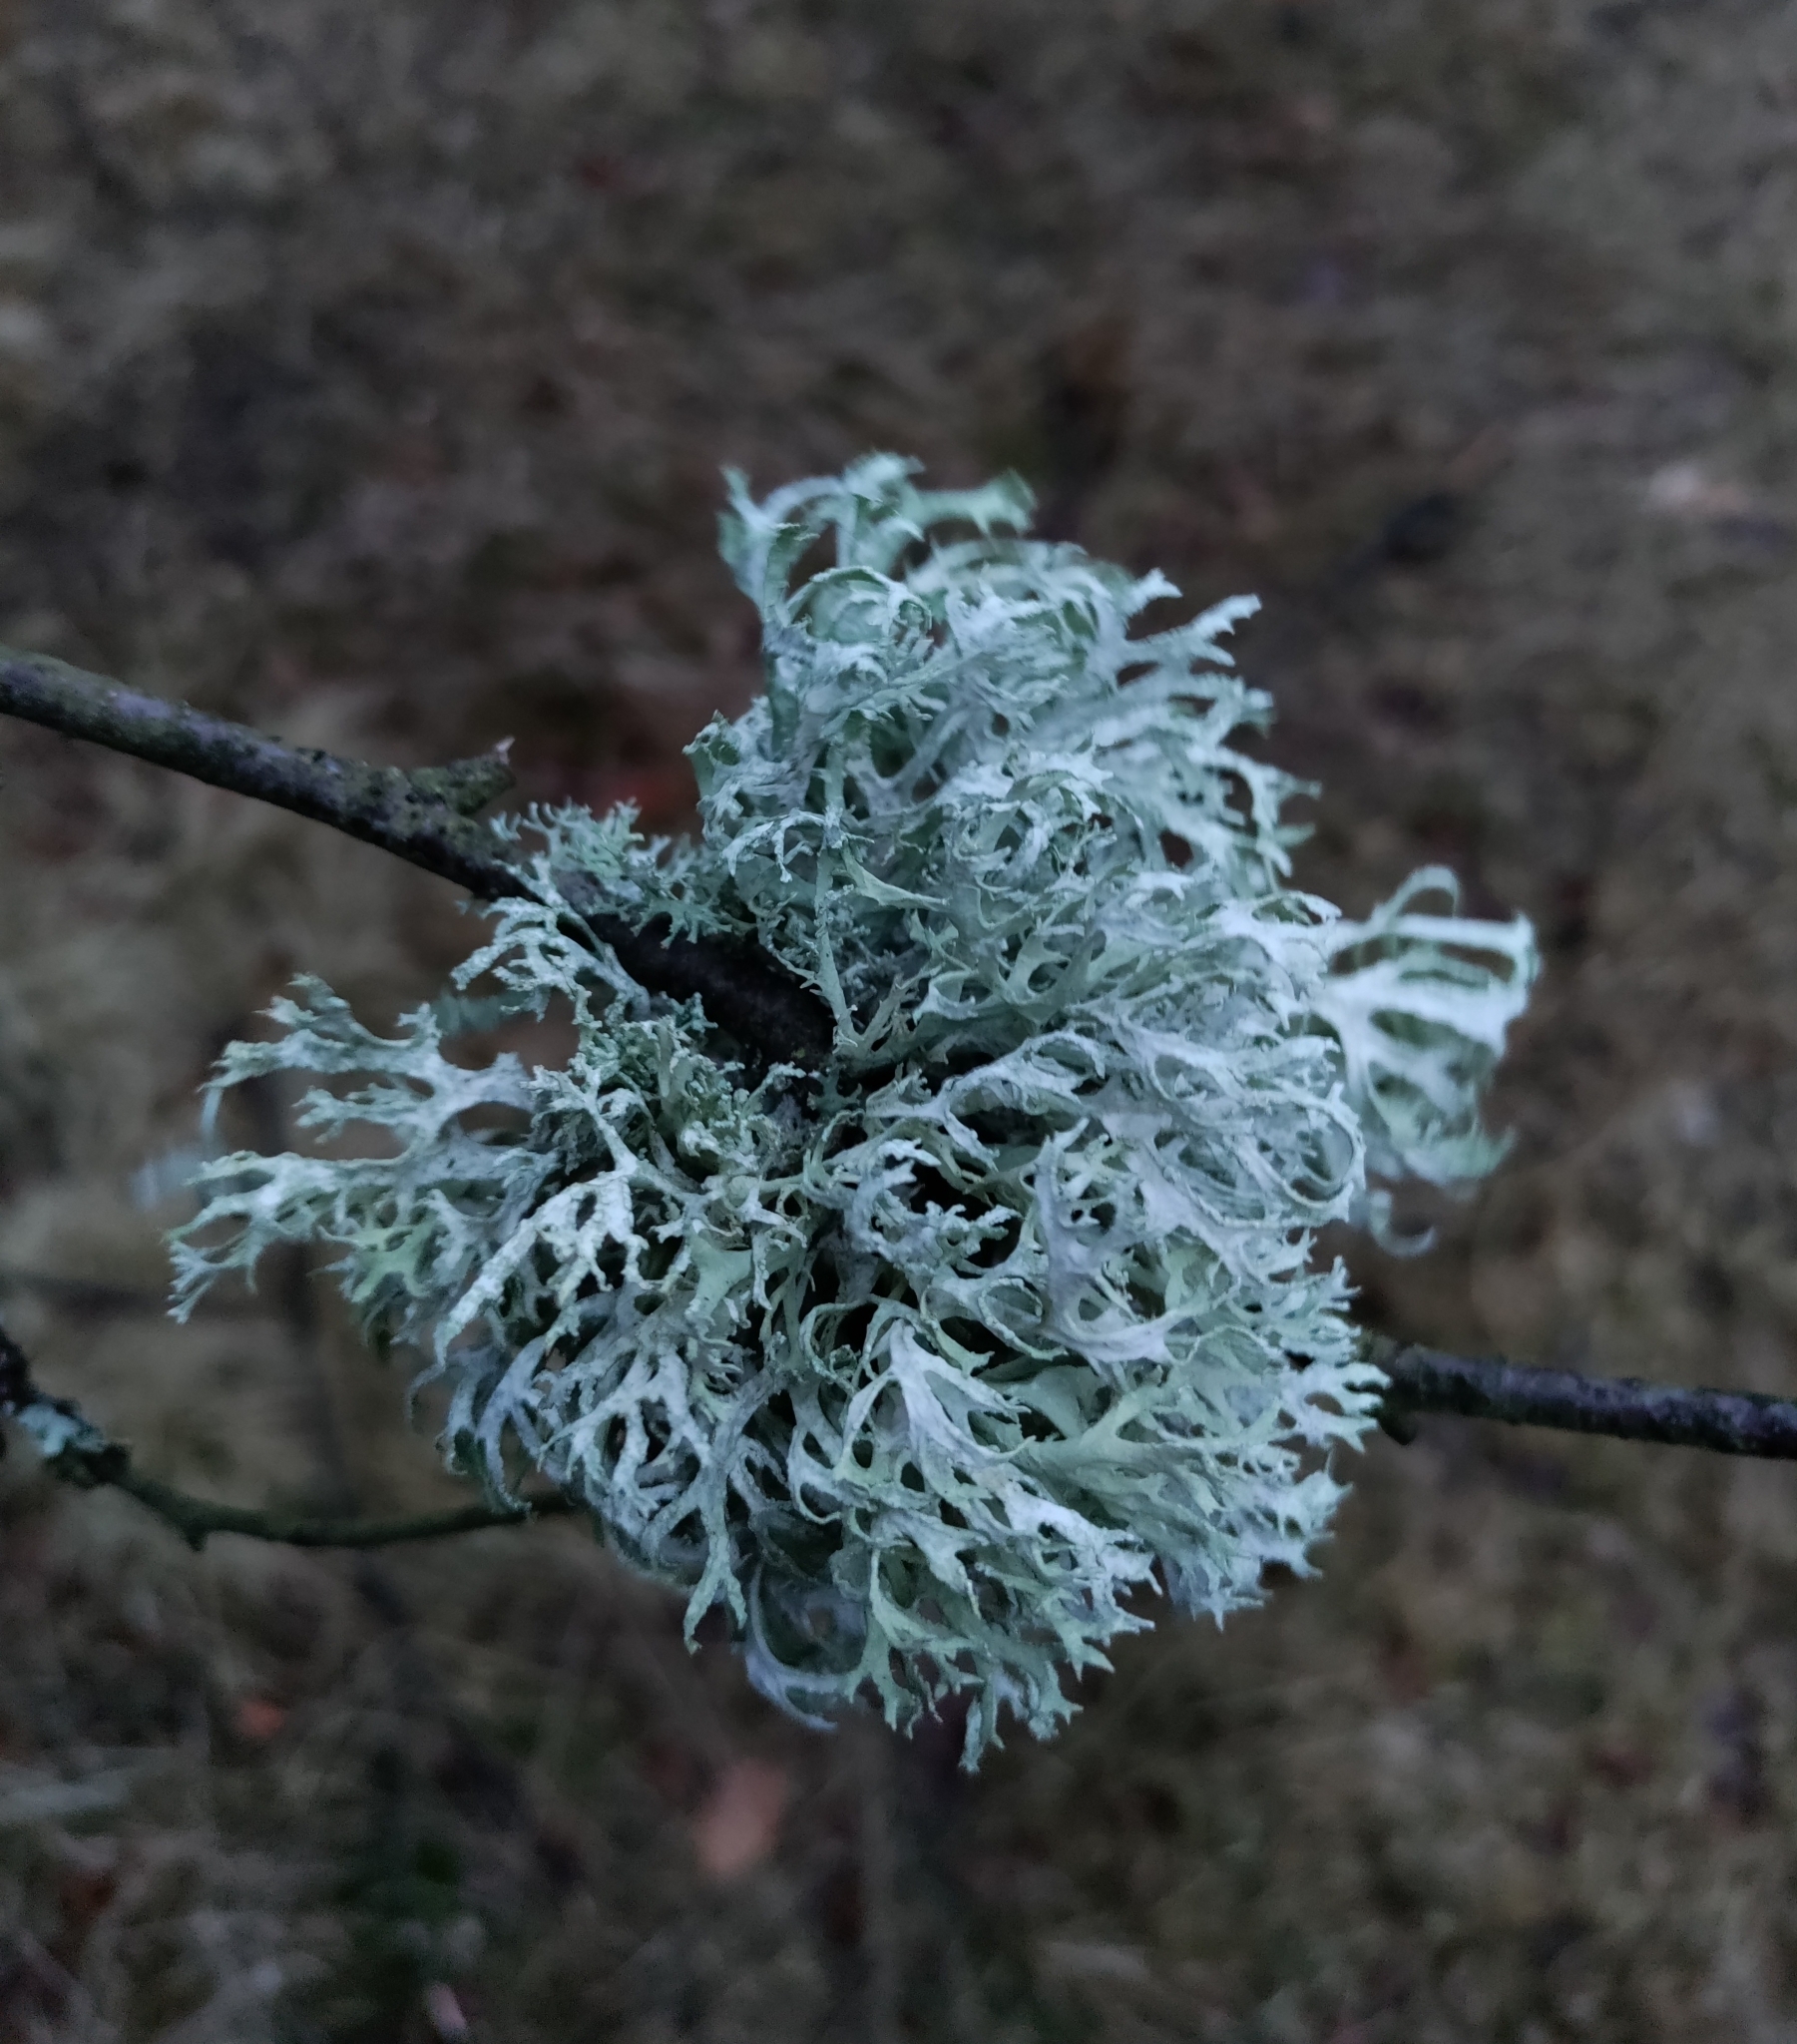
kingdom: Fungi
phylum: Ascomycota
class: Lecanoromycetes
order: Lecanorales
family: Parmeliaceae
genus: Evernia
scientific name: Evernia prunastri
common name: Oak moss
